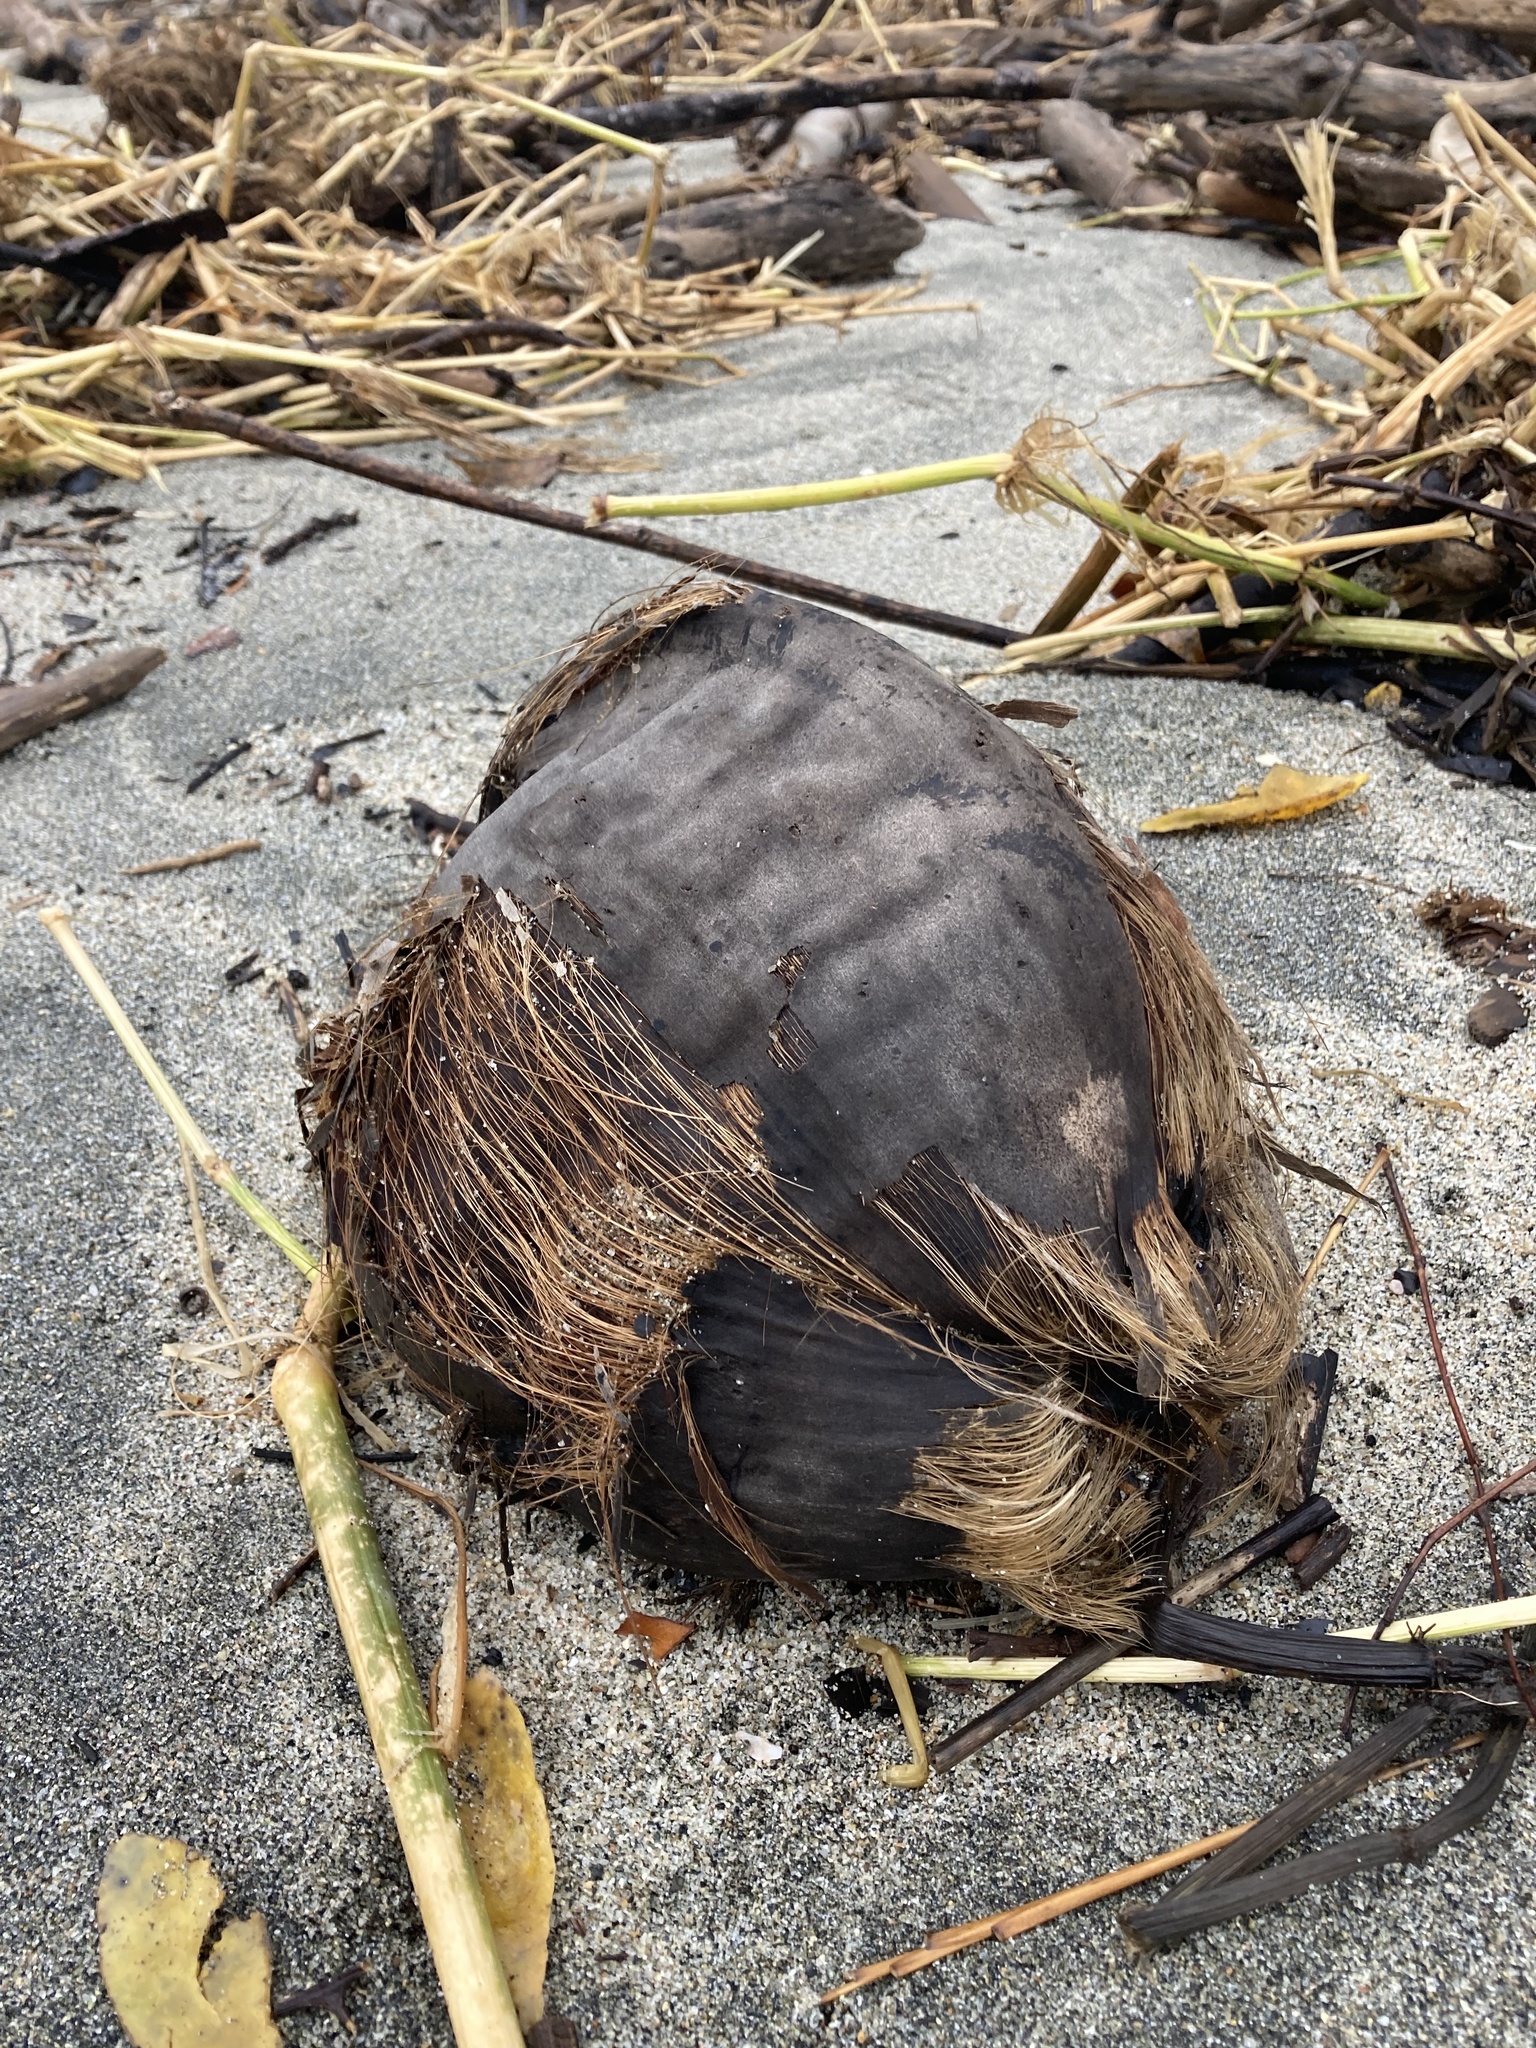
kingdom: Plantae
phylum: Tracheophyta
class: Liliopsida
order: Arecales
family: Arecaceae
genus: Cocos
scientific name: Cocos nucifera
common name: Coconut palm
